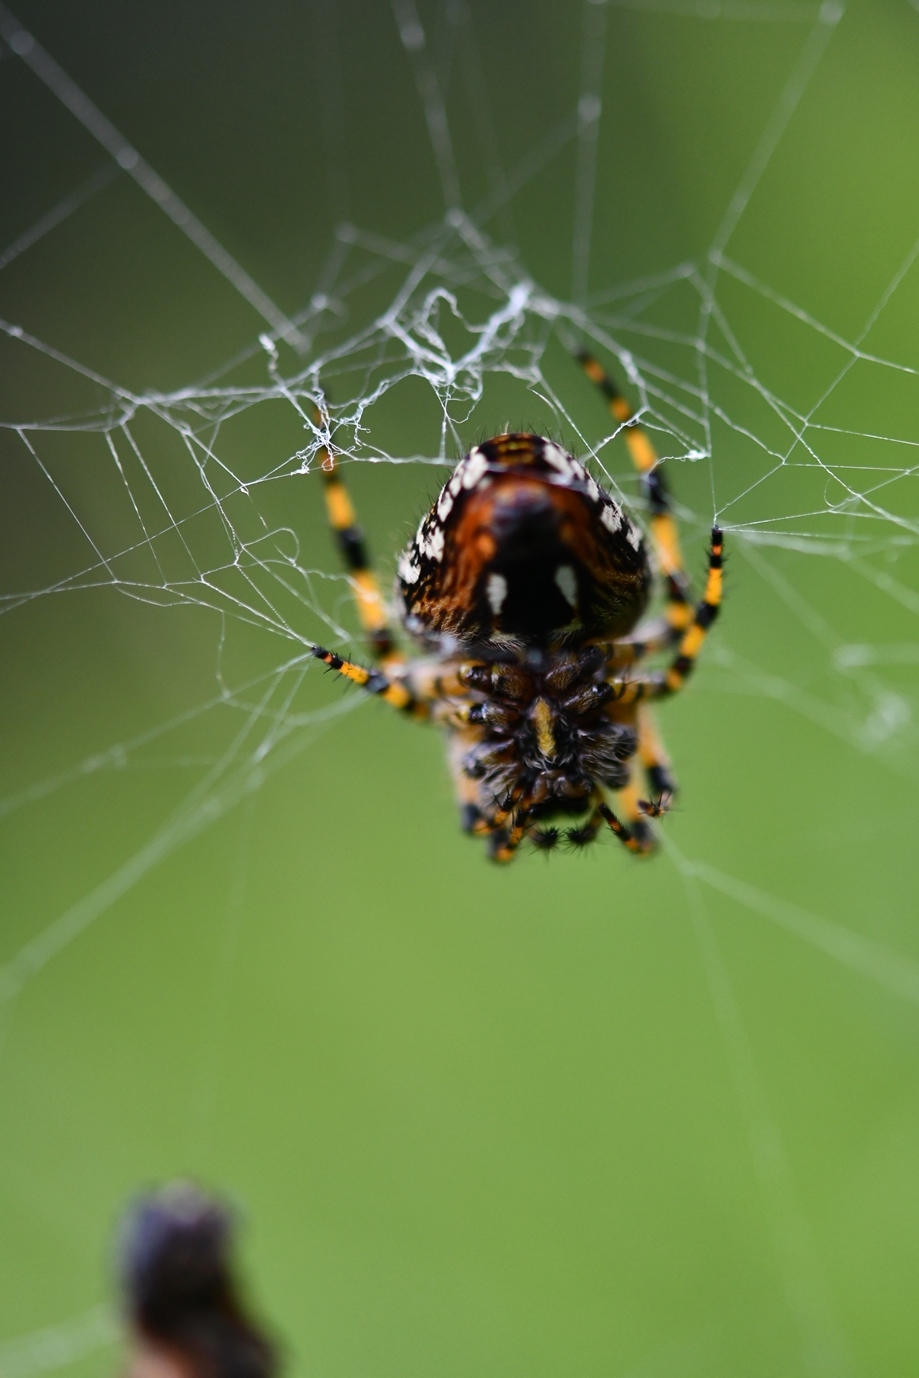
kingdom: Animalia
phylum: Arthropoda
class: Arachnida
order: Araneae
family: Araneidae
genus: Neoscona
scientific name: Neoscona orizabensis
